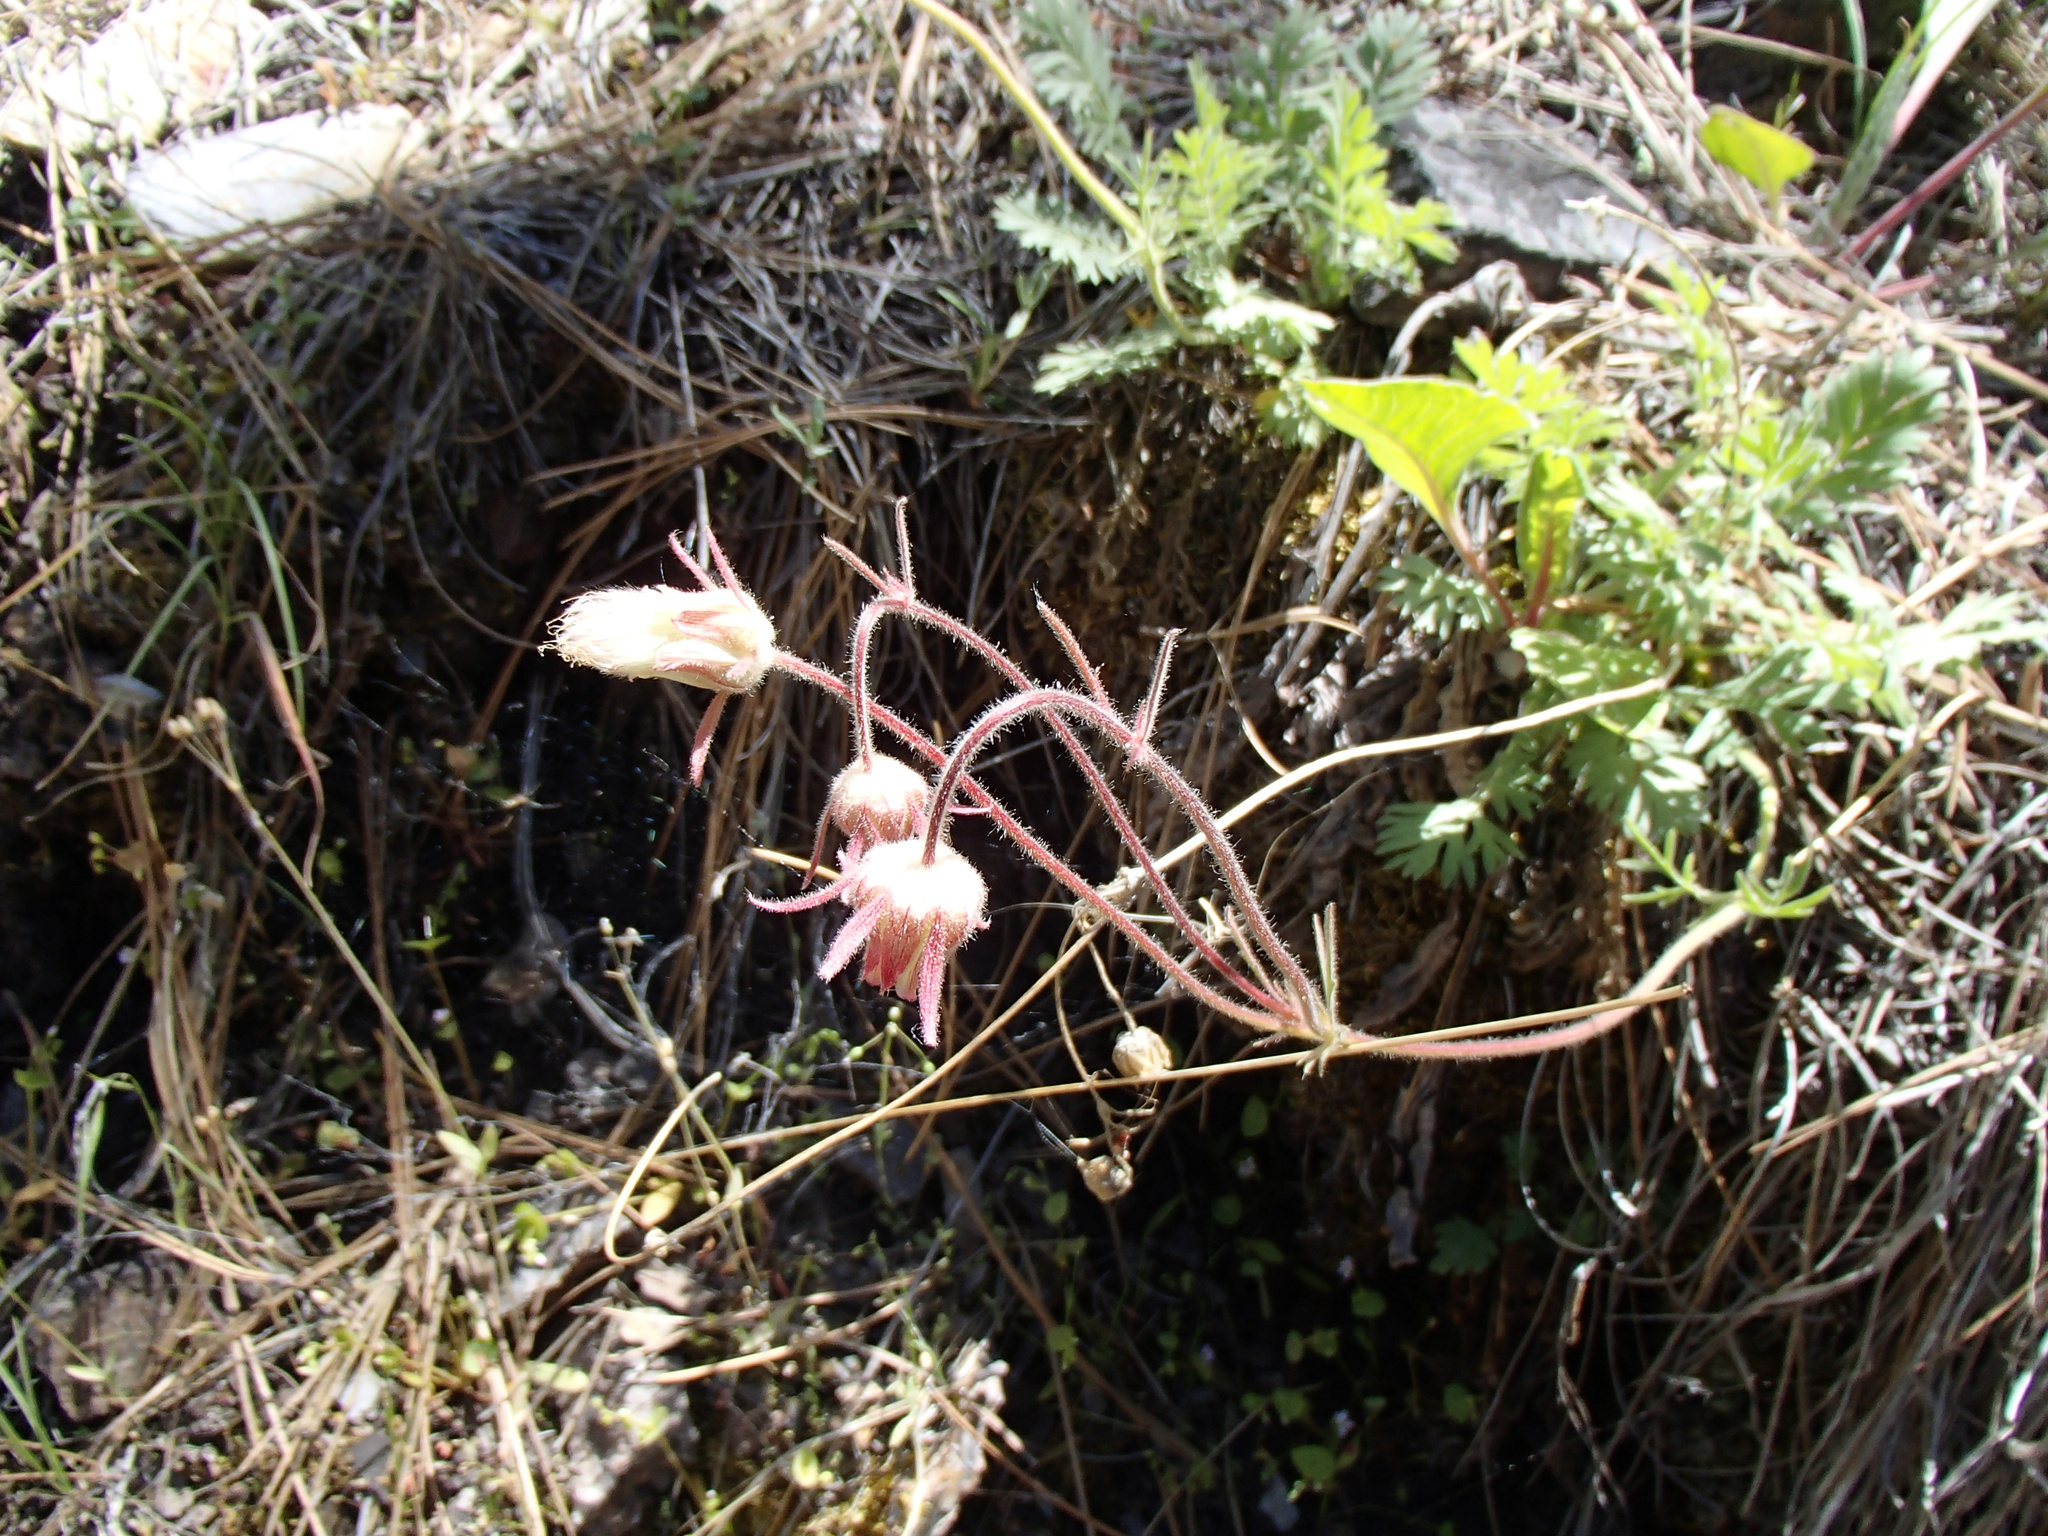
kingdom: Plantae
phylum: Tracheophyta
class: Magnoliopsida
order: Rosales
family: Rosaceae
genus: Geum
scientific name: Geum triflorum
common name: Old man's whiskers
